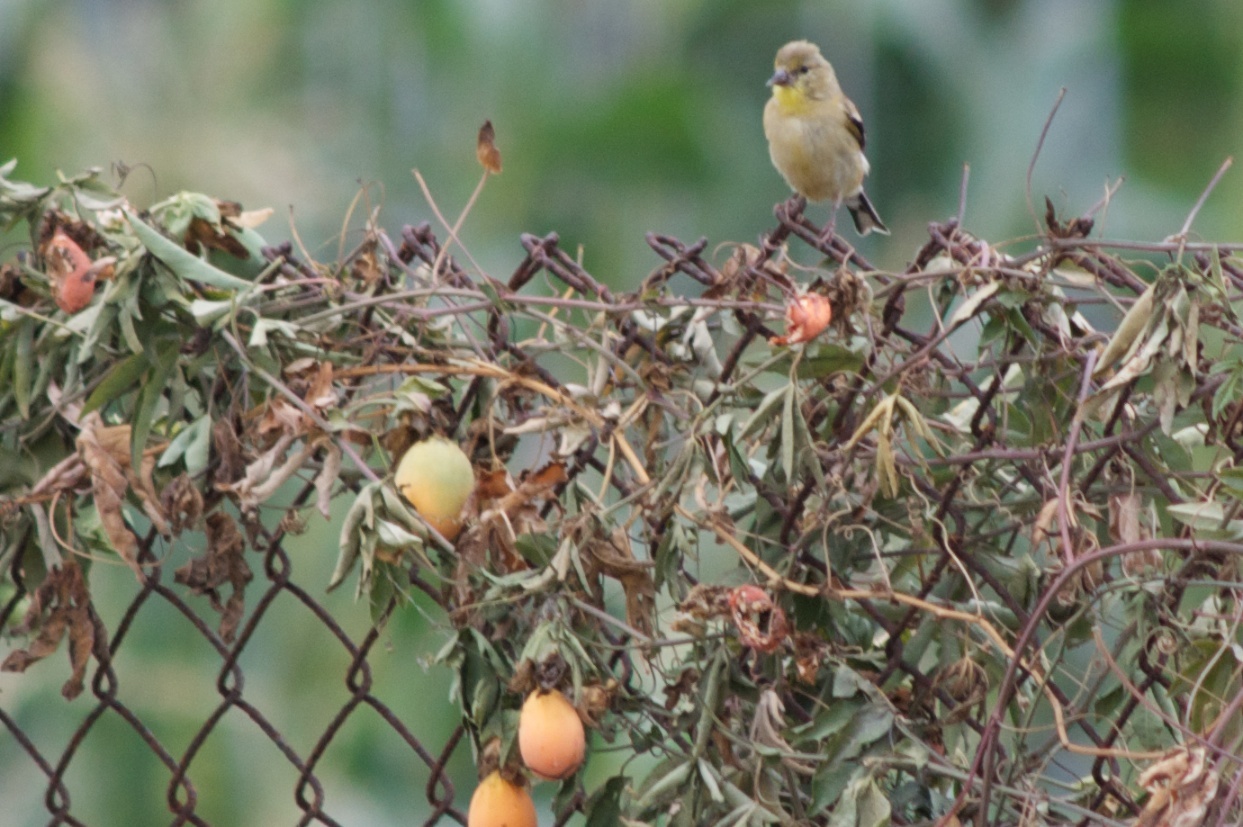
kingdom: Animalia
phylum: Chordata
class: Aves
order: Passeriformes
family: Fringillidae
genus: Spinus
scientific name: Spinus tristis
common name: American goldfinch
